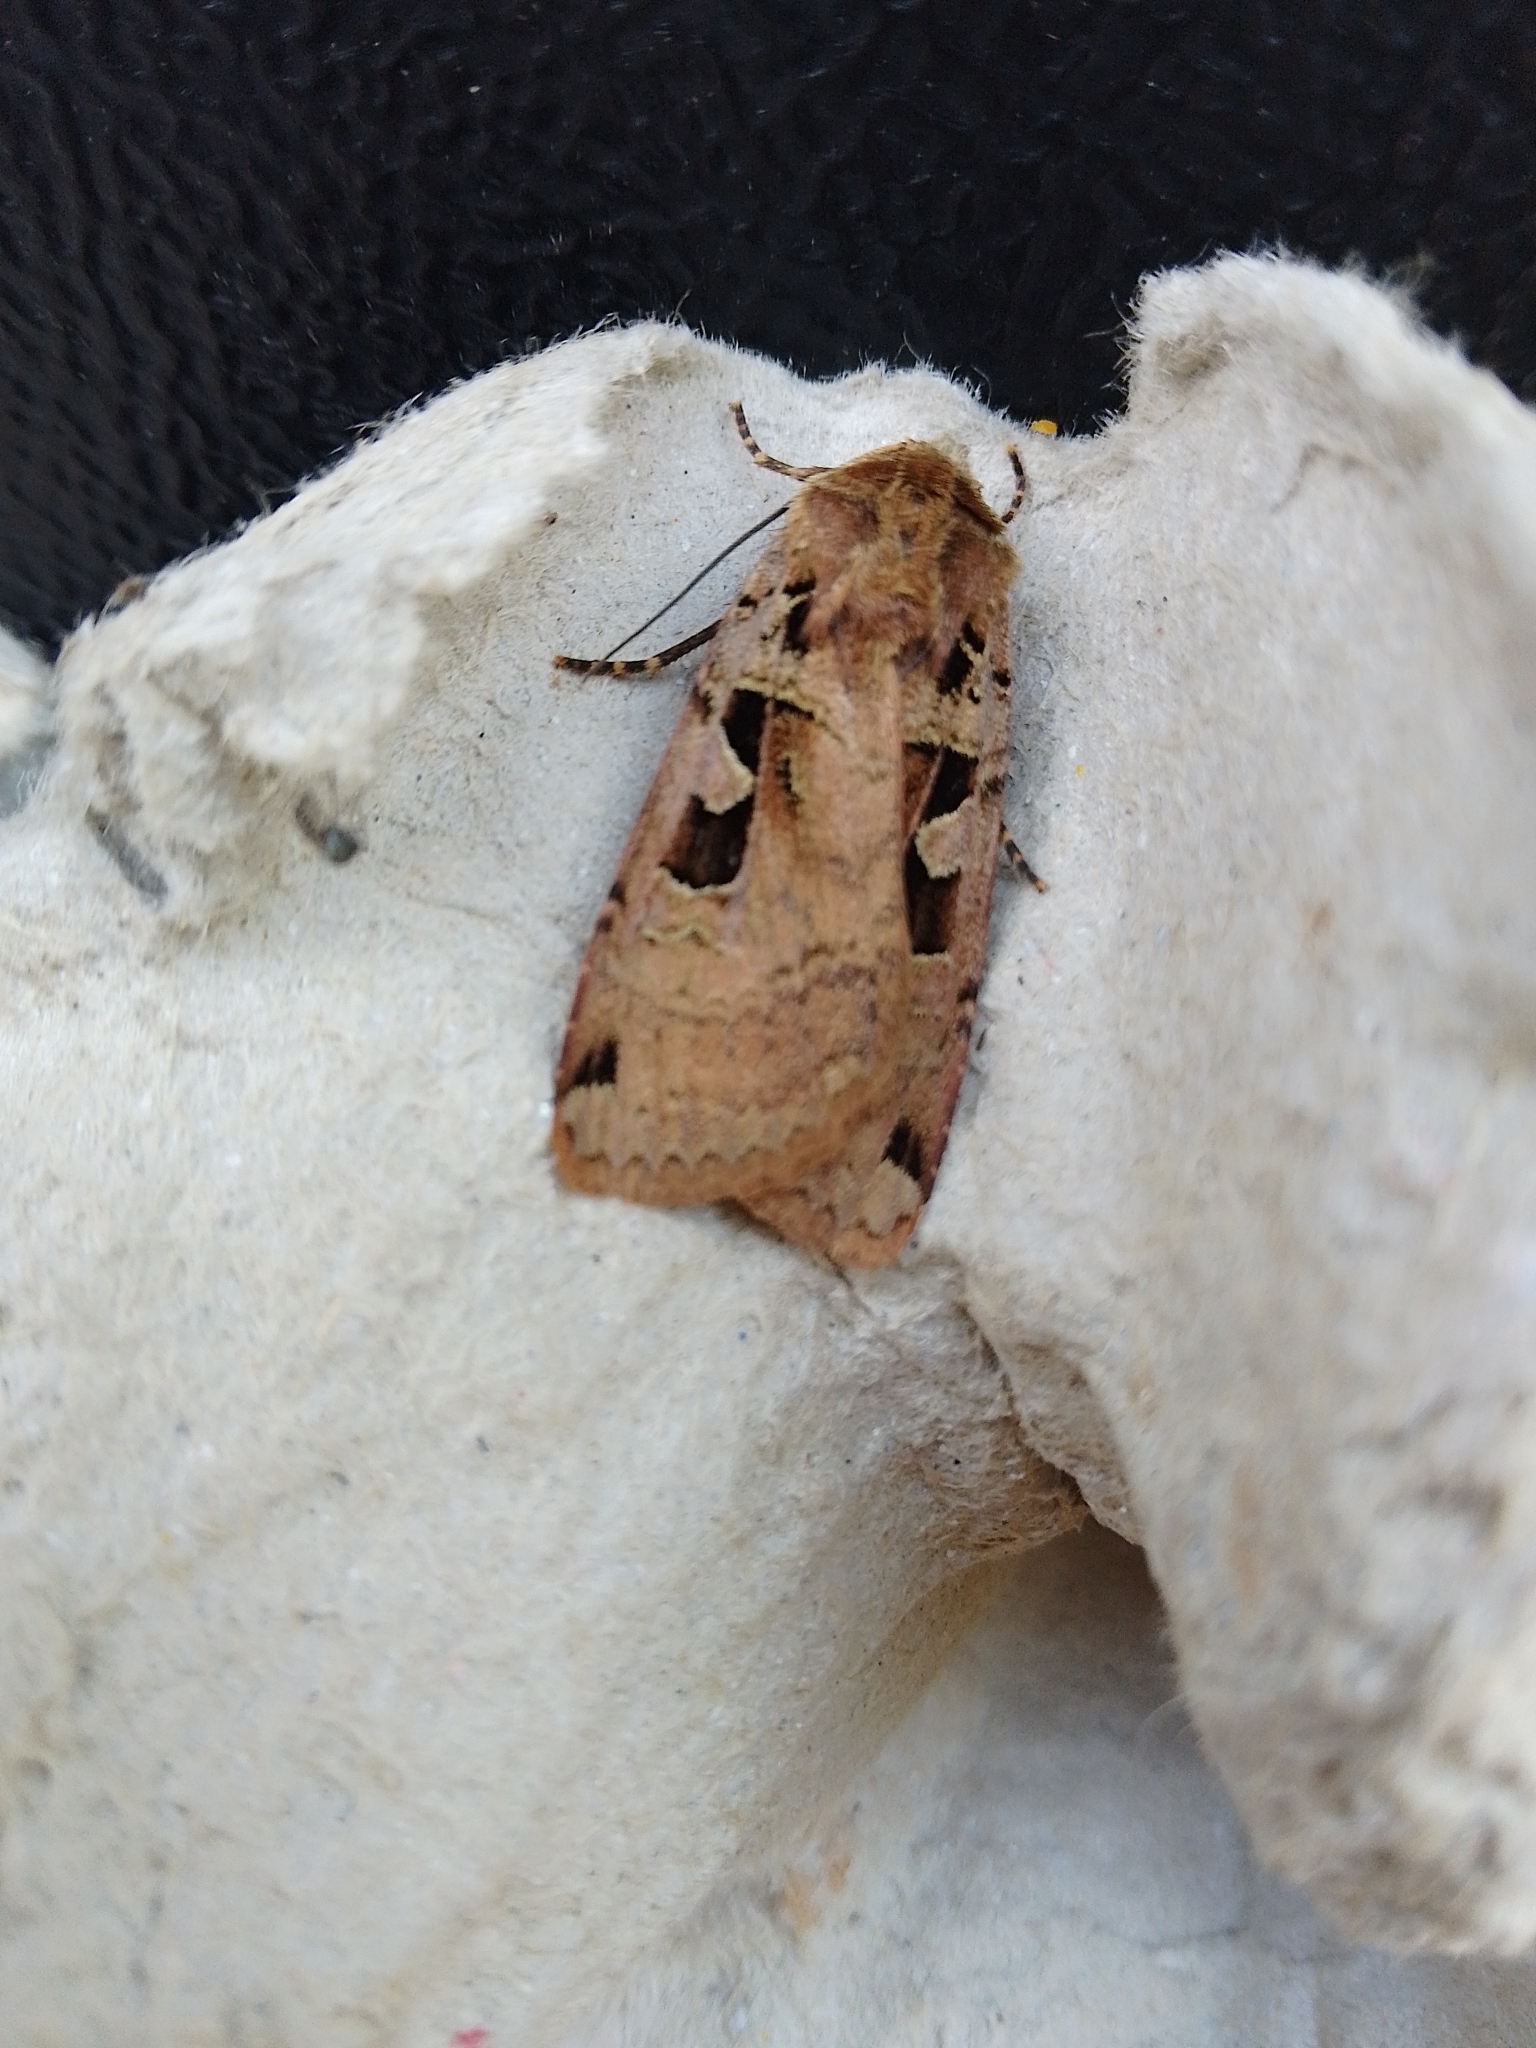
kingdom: Animalia
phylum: Arthropoda
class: Insecta
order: Lepidoptera
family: Noctuidae
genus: Xestia
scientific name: Xestia triangulum
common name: Double square-spot
